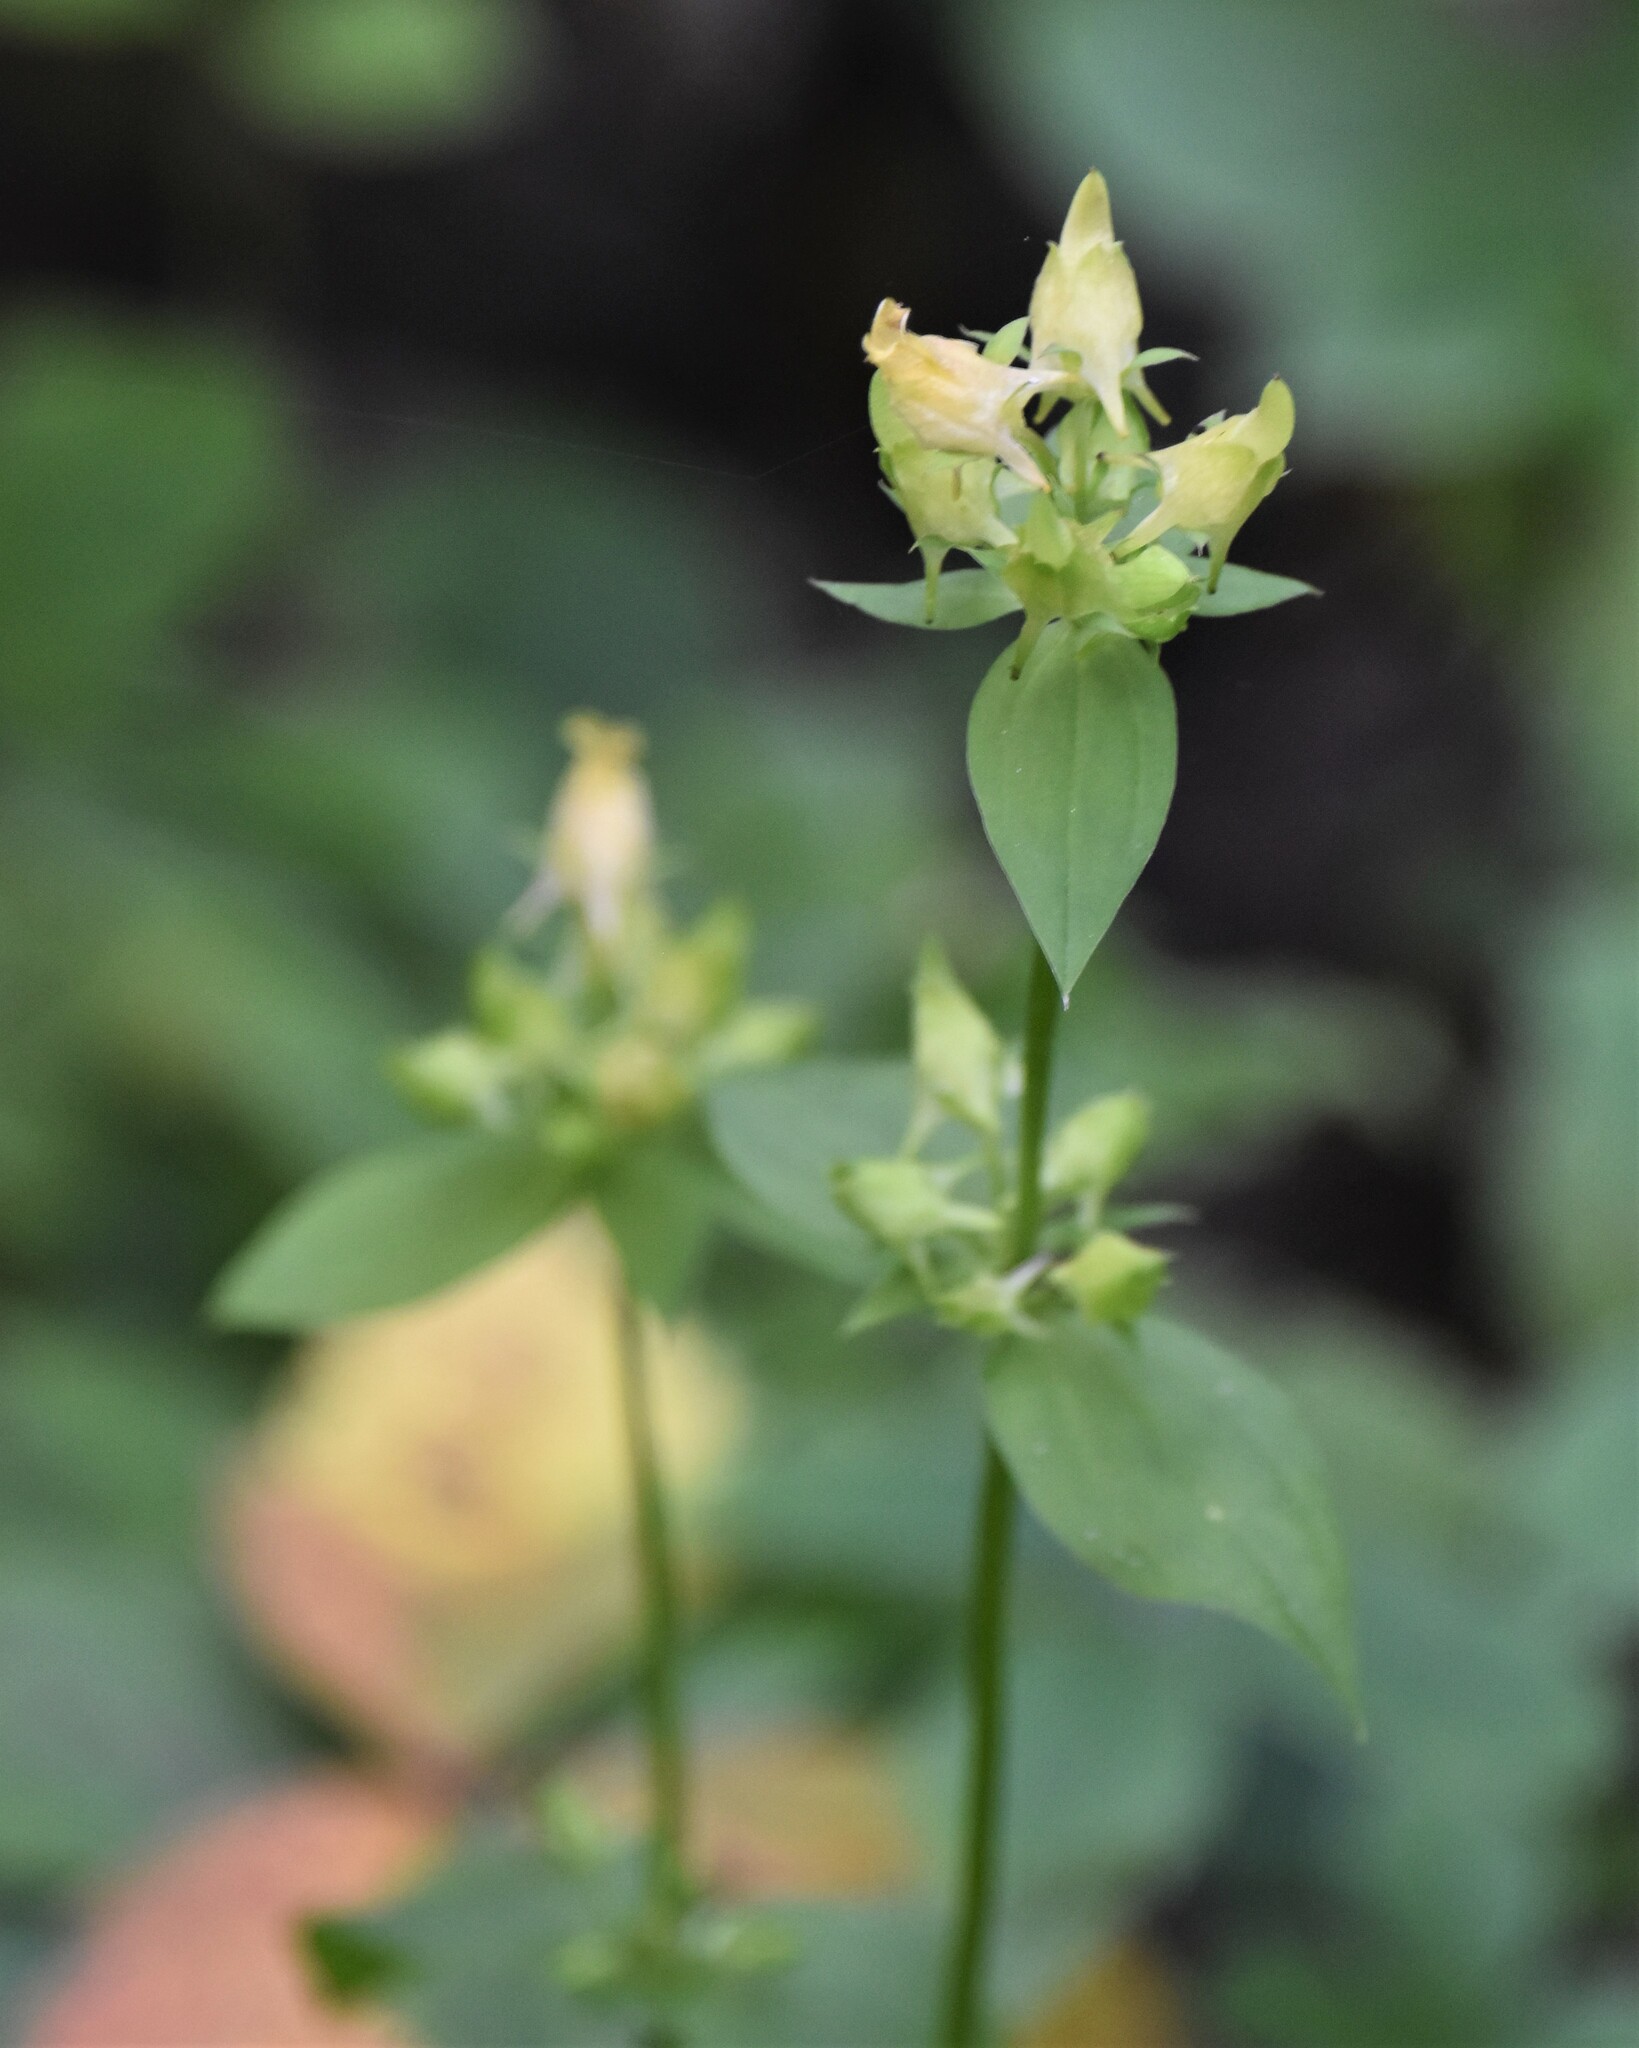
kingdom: Plantae
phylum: Tracheophyta
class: Magnoliopsida
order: Gentianales
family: Gentianaceae
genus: Halenia
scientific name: Halenia deflexa
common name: American spurred gentian
